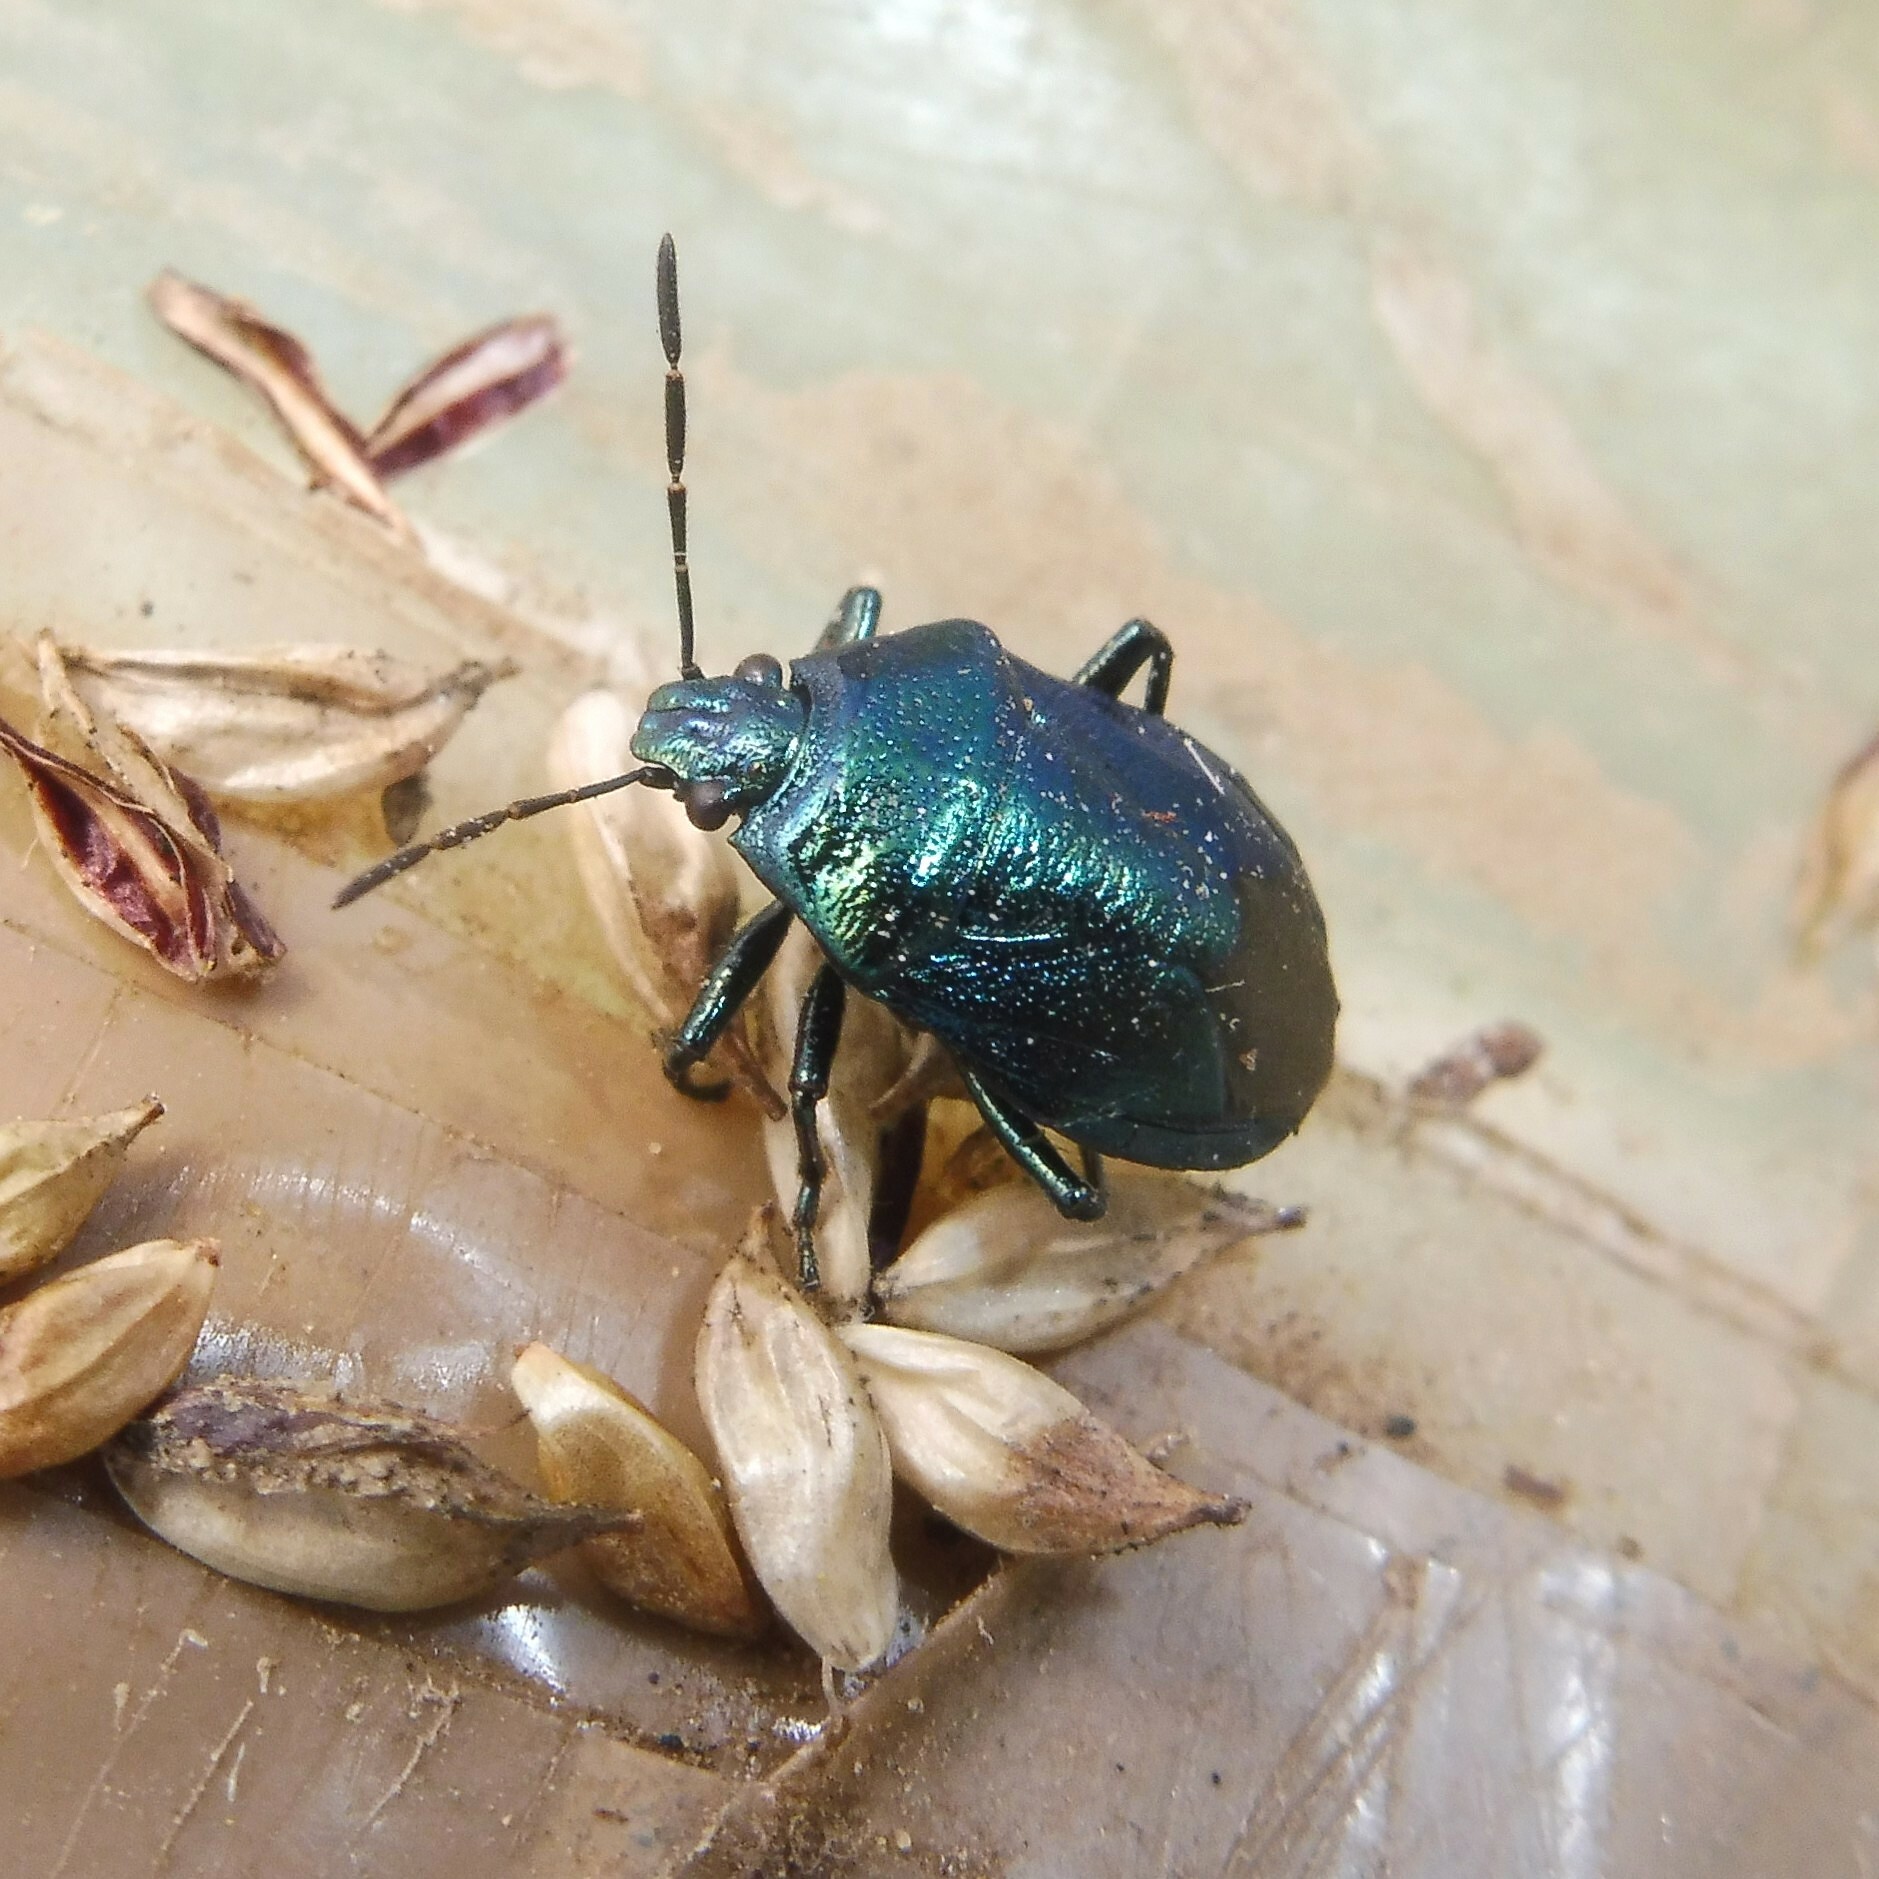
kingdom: Animalia
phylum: Arthropoda
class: Insecta
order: Hemiptera
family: Pentatomidae
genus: Zicrona
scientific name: Zicrona caerulea
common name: Blue shieldbug
